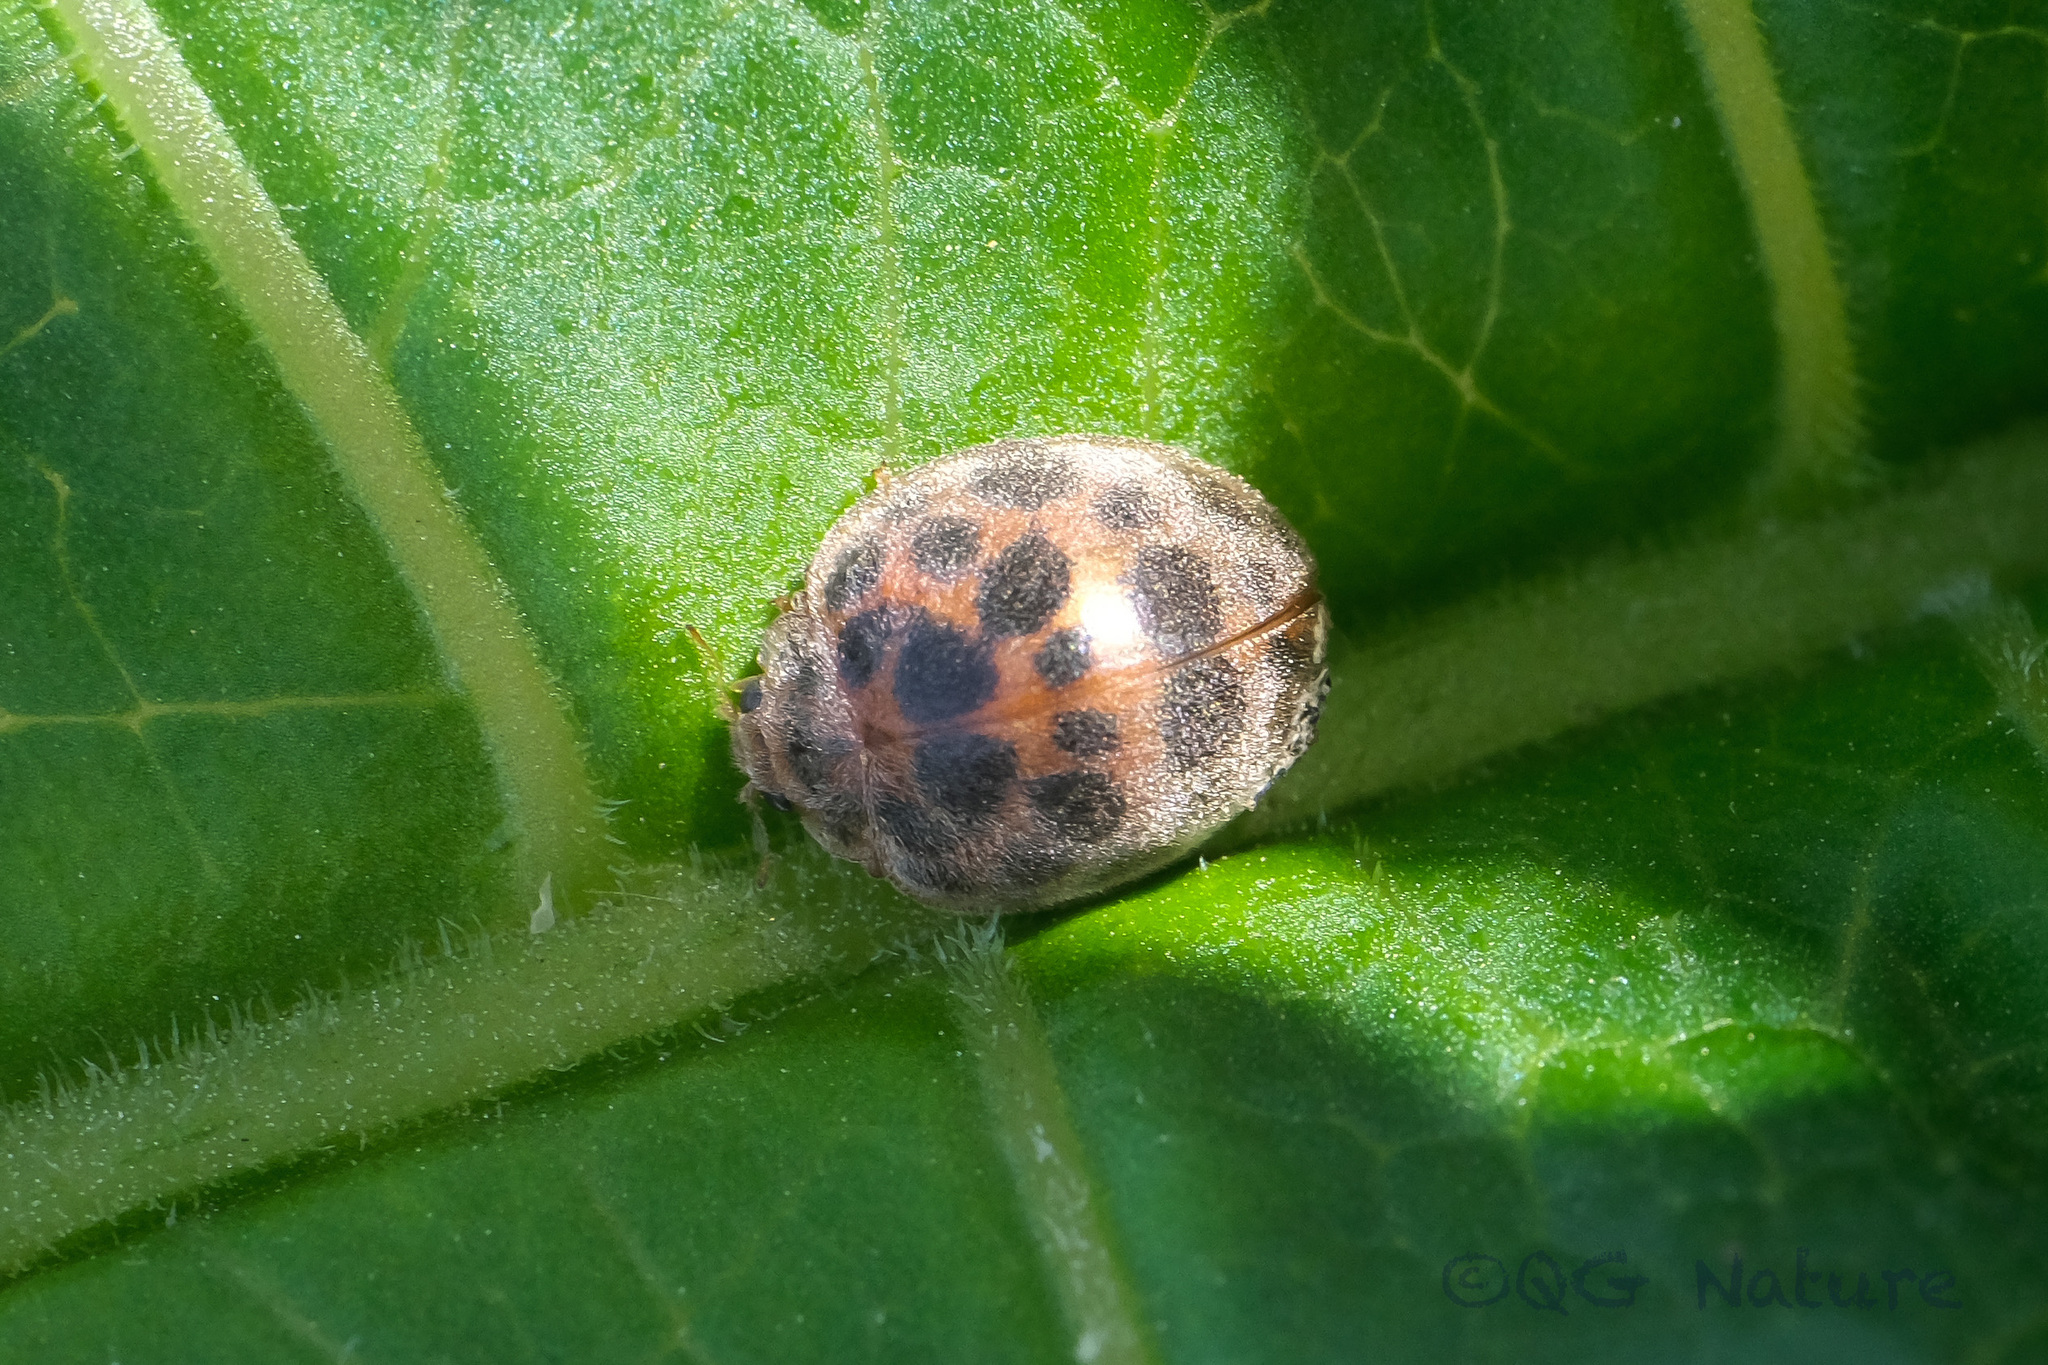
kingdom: Animalia
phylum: Arthropoda
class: Insecta
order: Coleoptera
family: Coccinellidae
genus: Henosepilachna
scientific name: Henosepilachna vigintioctopunctata
